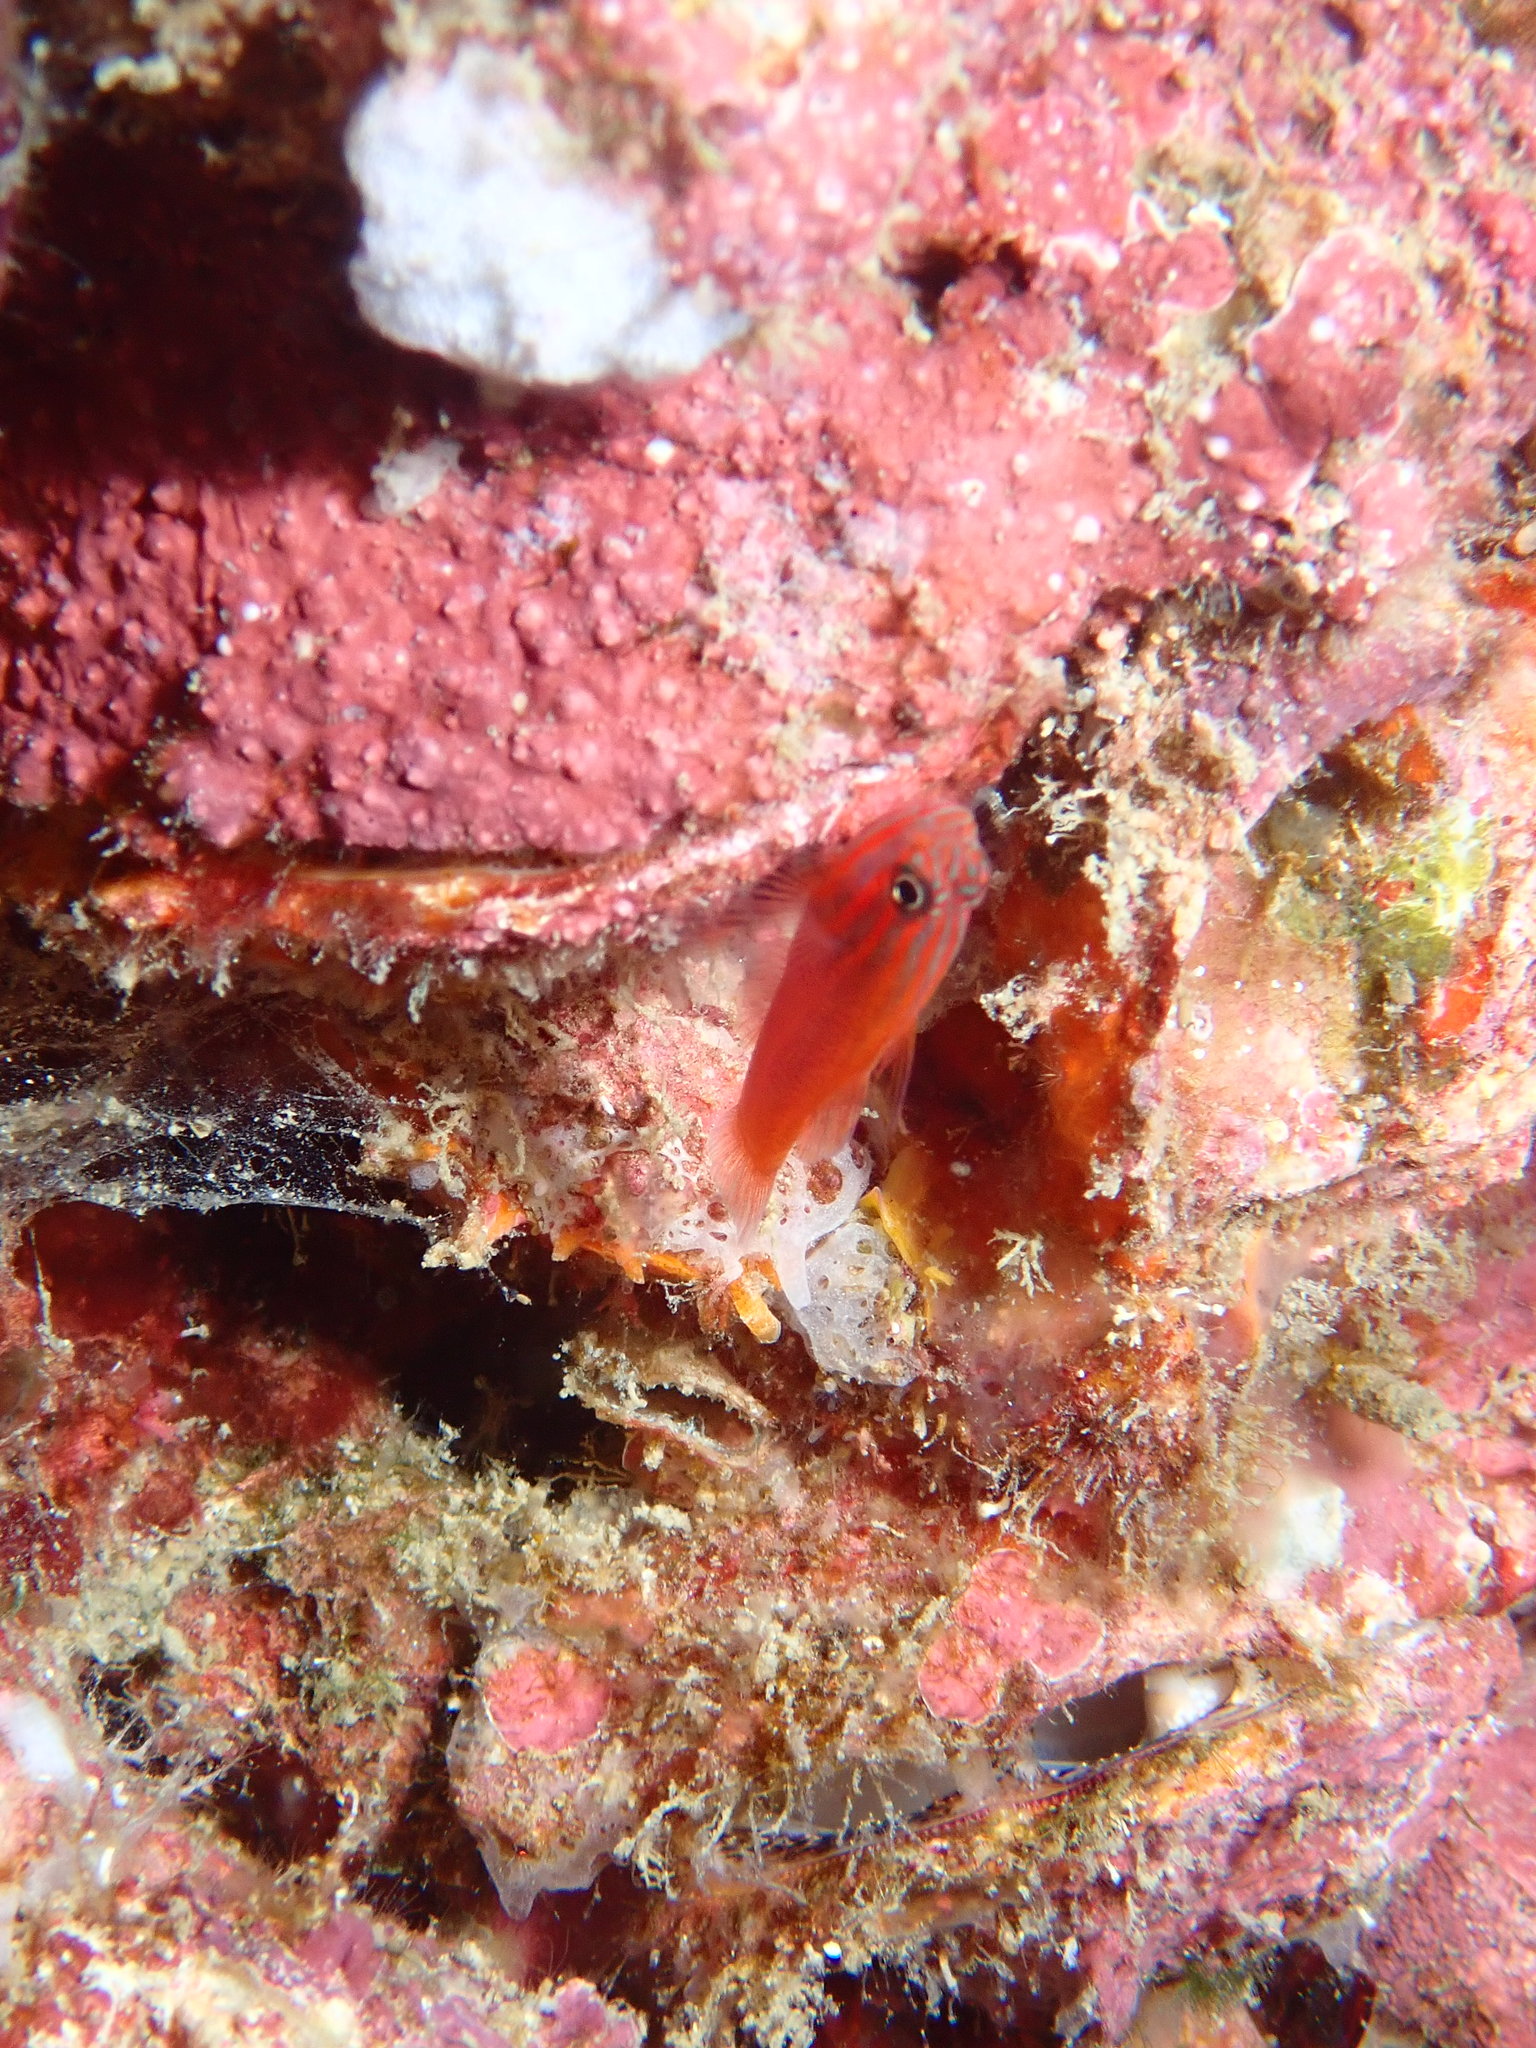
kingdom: Animalia
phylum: Chordata
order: Perciformes
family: Gobiidae
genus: Trimma
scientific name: Trimma striatum
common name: Red-lined pygmy-goby
